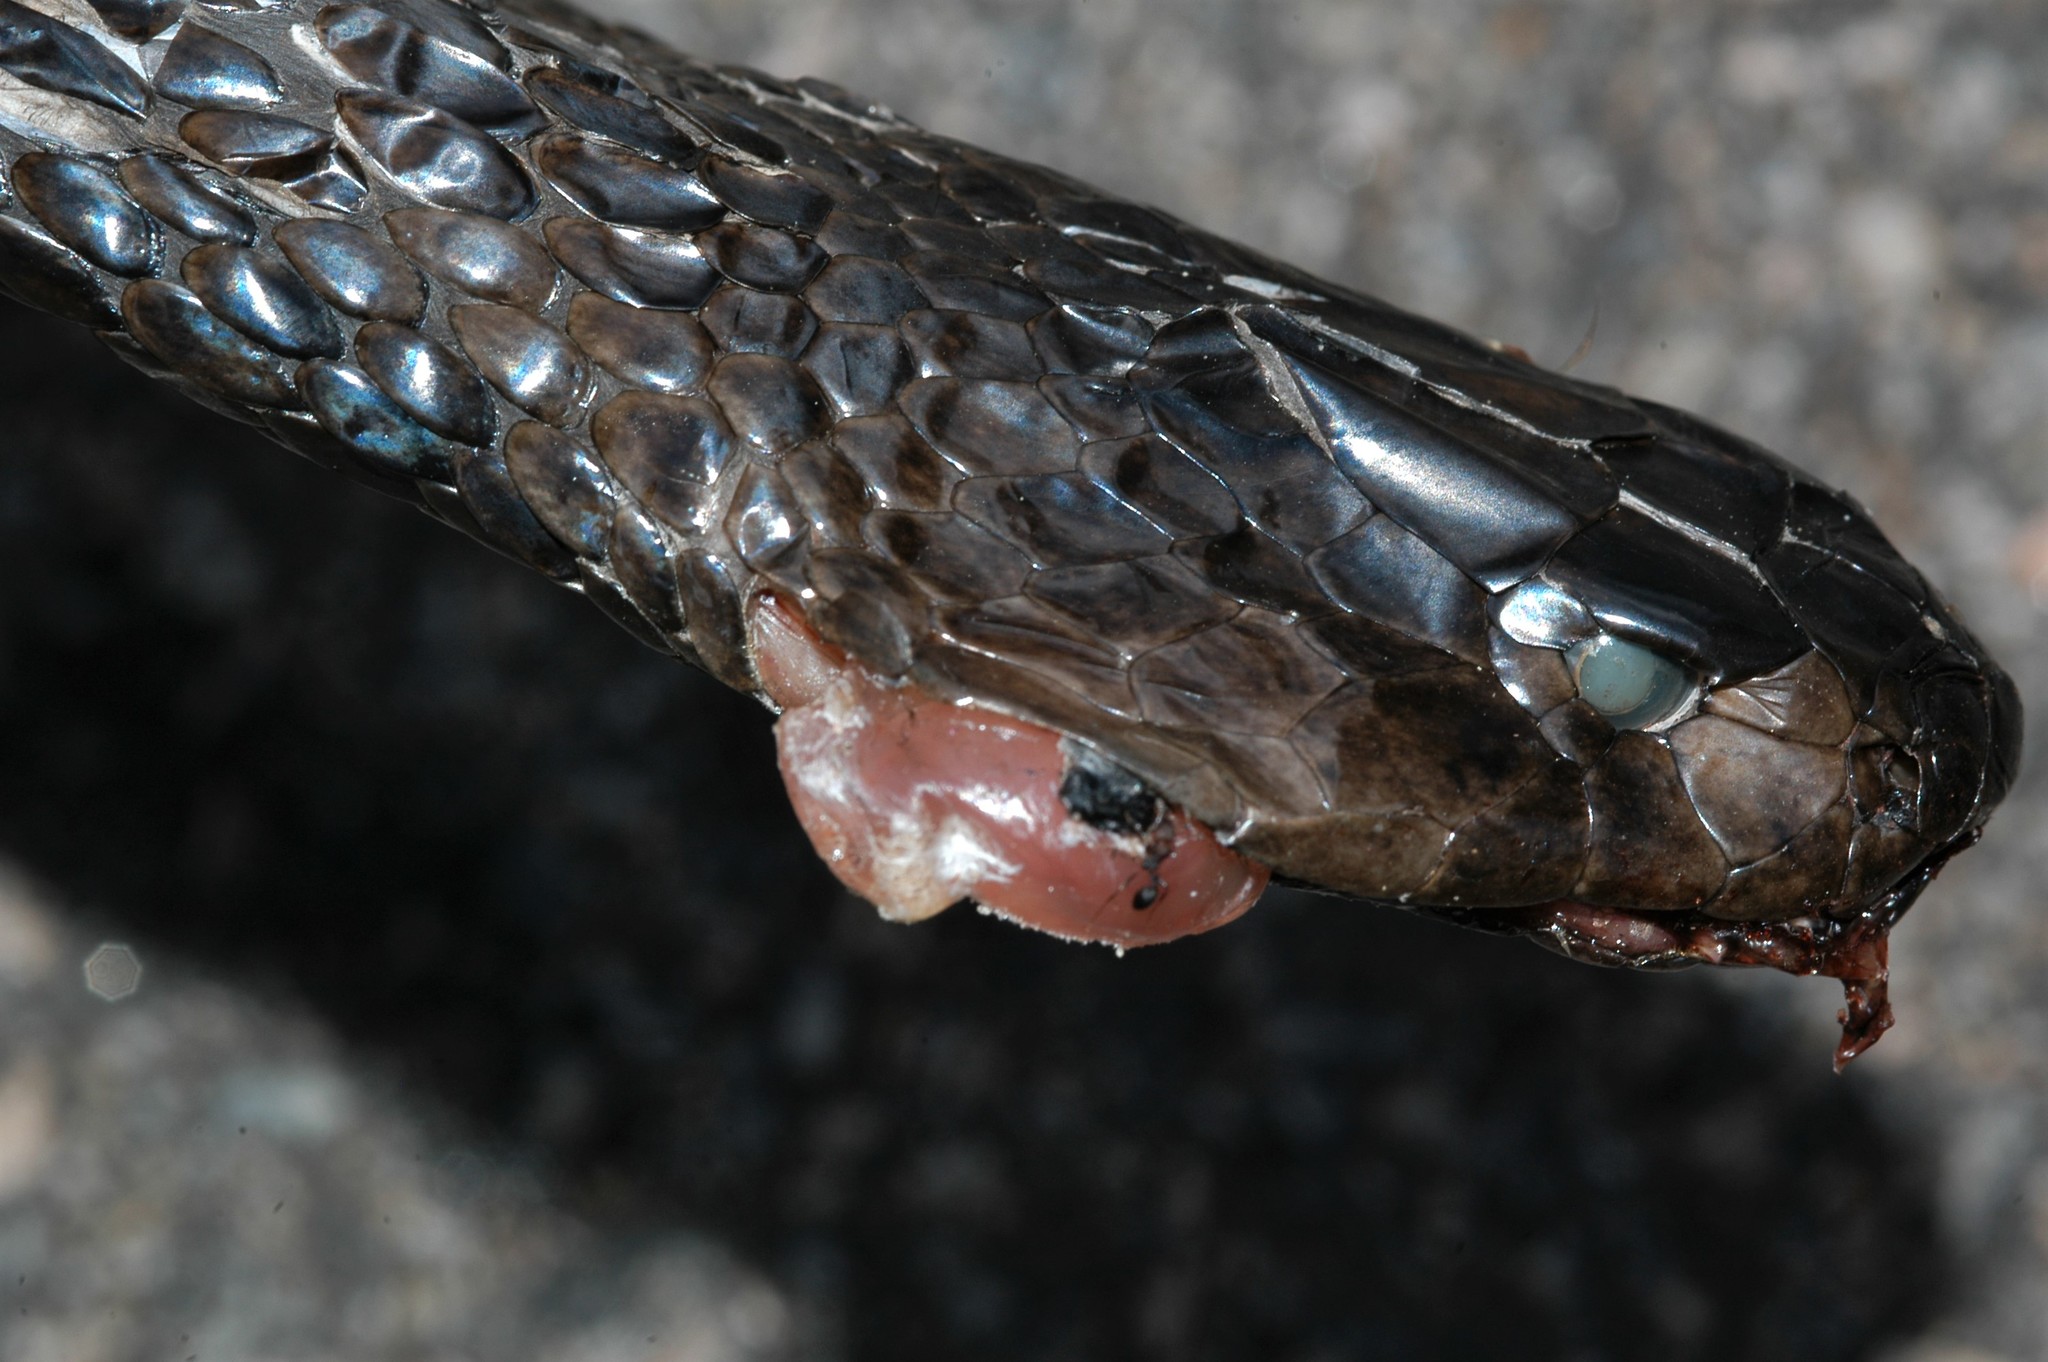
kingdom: Animalia
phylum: Chordata
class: Squamata
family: Elapidae
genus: Naja
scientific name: Naja nigricollis
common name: Black-necked spitting cobra
